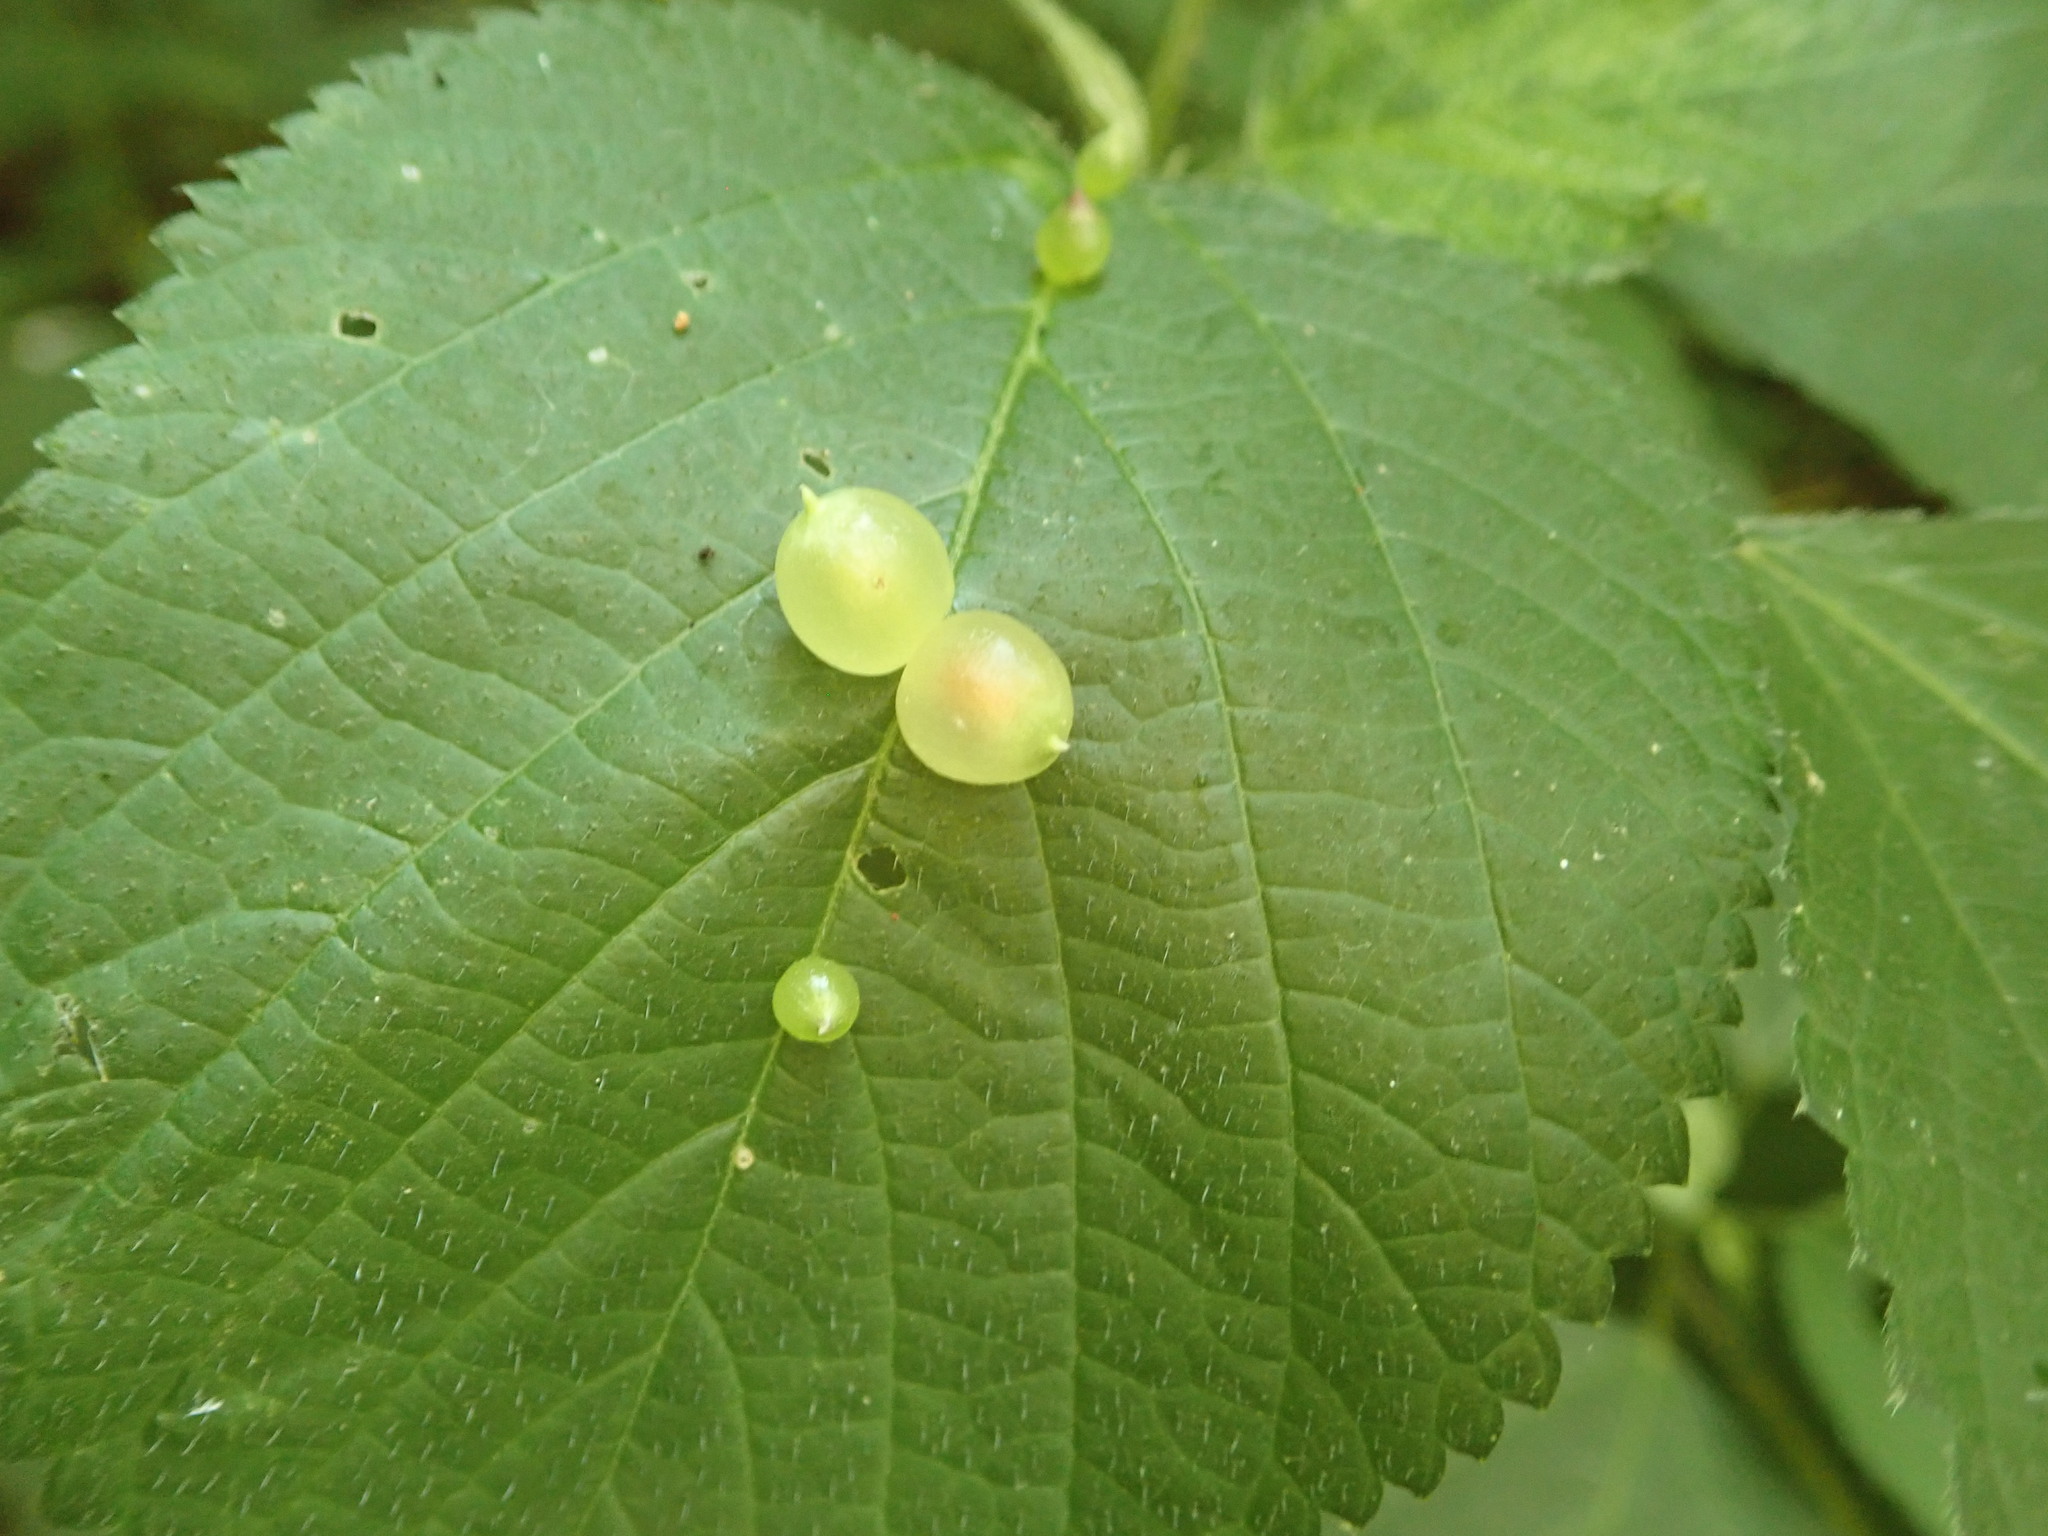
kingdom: Animalia
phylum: Arthropoda
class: Insecta
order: Diptera
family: Cecidomyiidae
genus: Dasineura
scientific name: Dasineura investita
